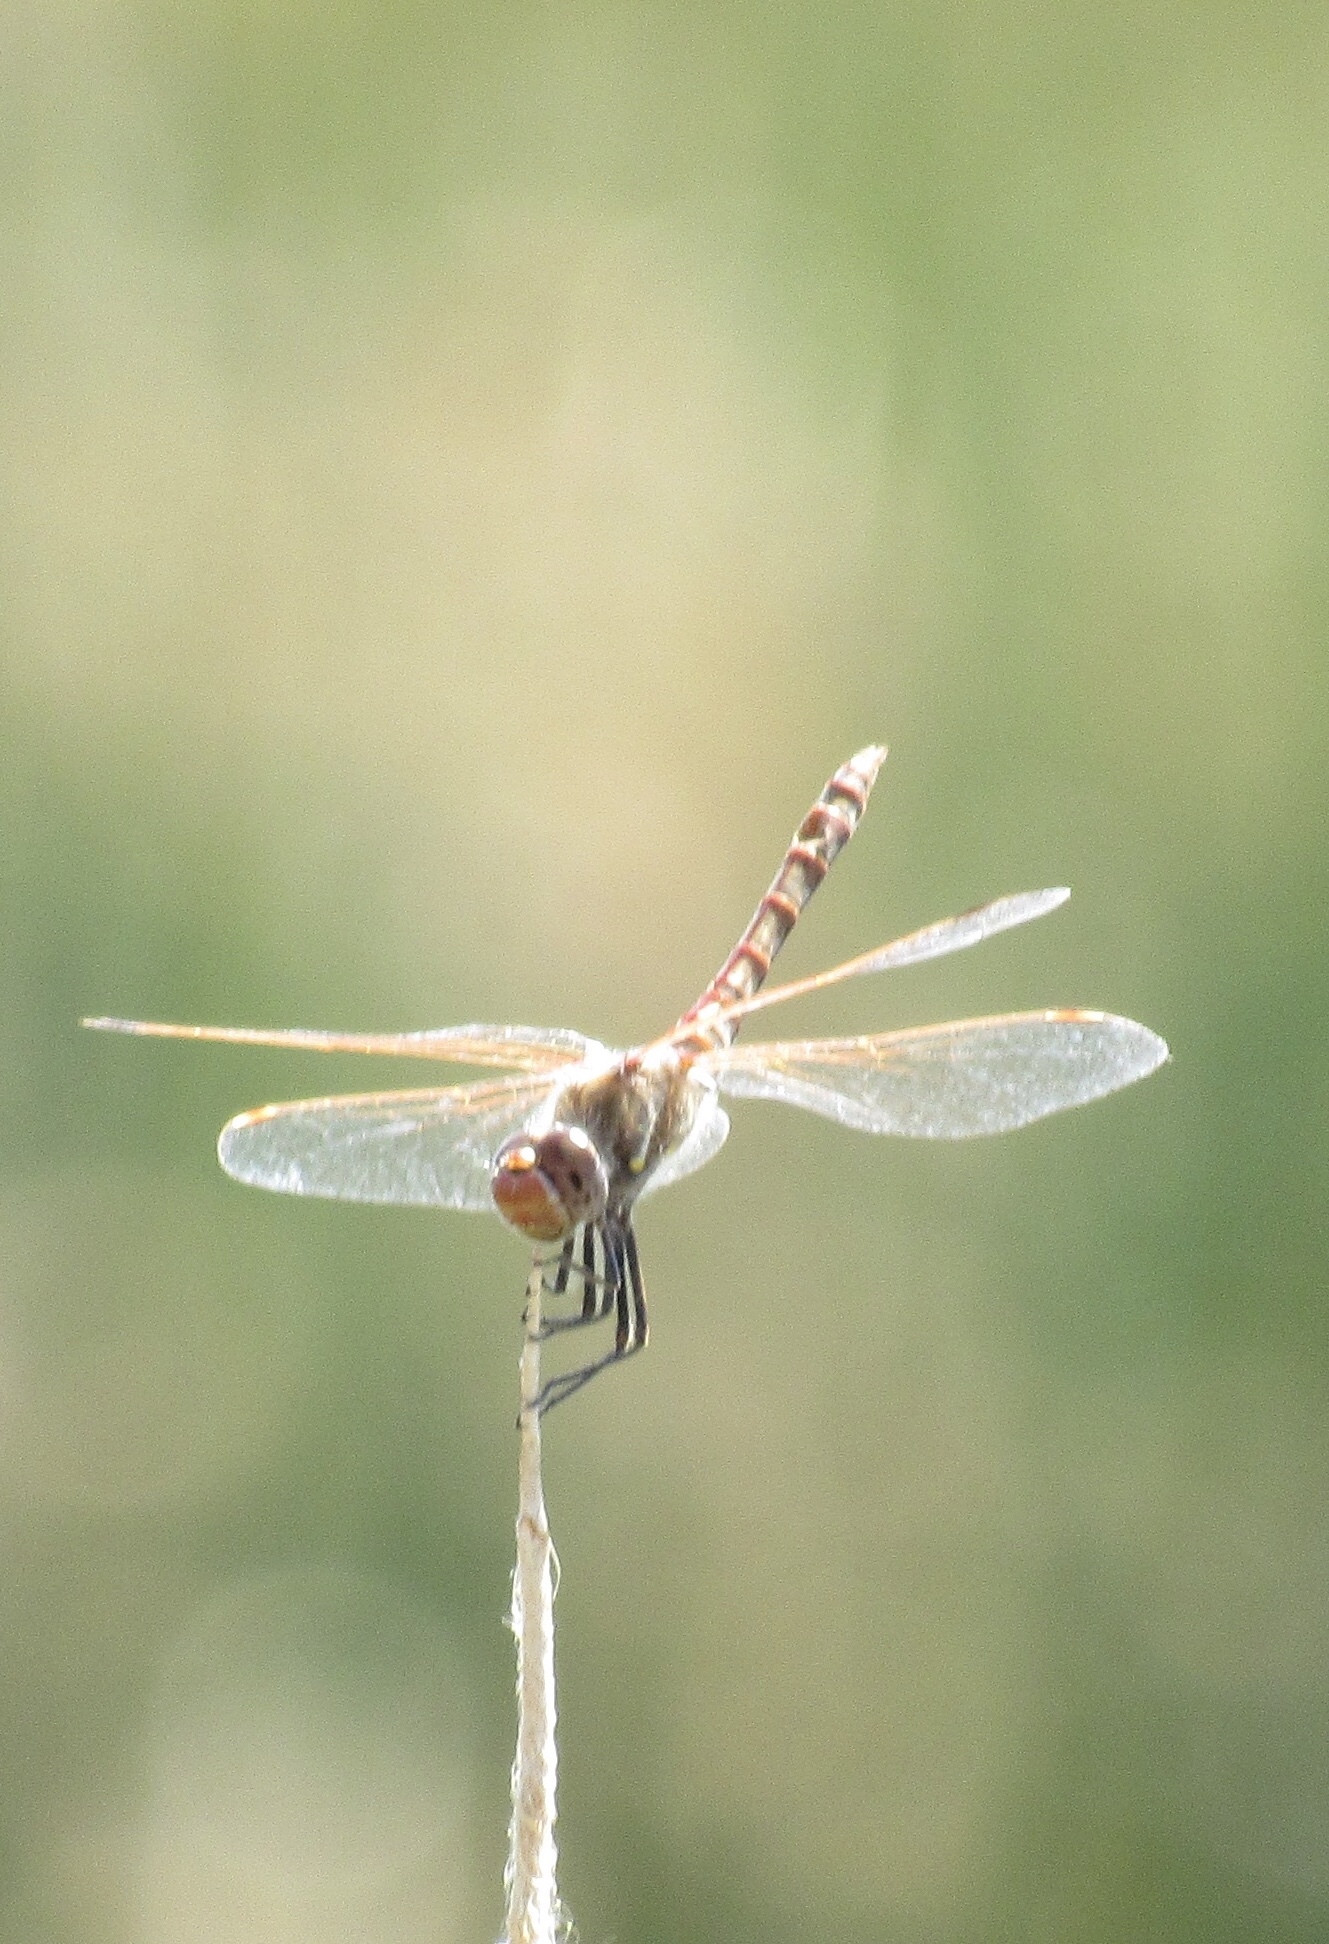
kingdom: Animalia
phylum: Arthropoda
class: Insecta
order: Odonata
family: Libellulidae
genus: Sympetrum
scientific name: Sympetrum corruptum
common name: Variegated meadowhawk
